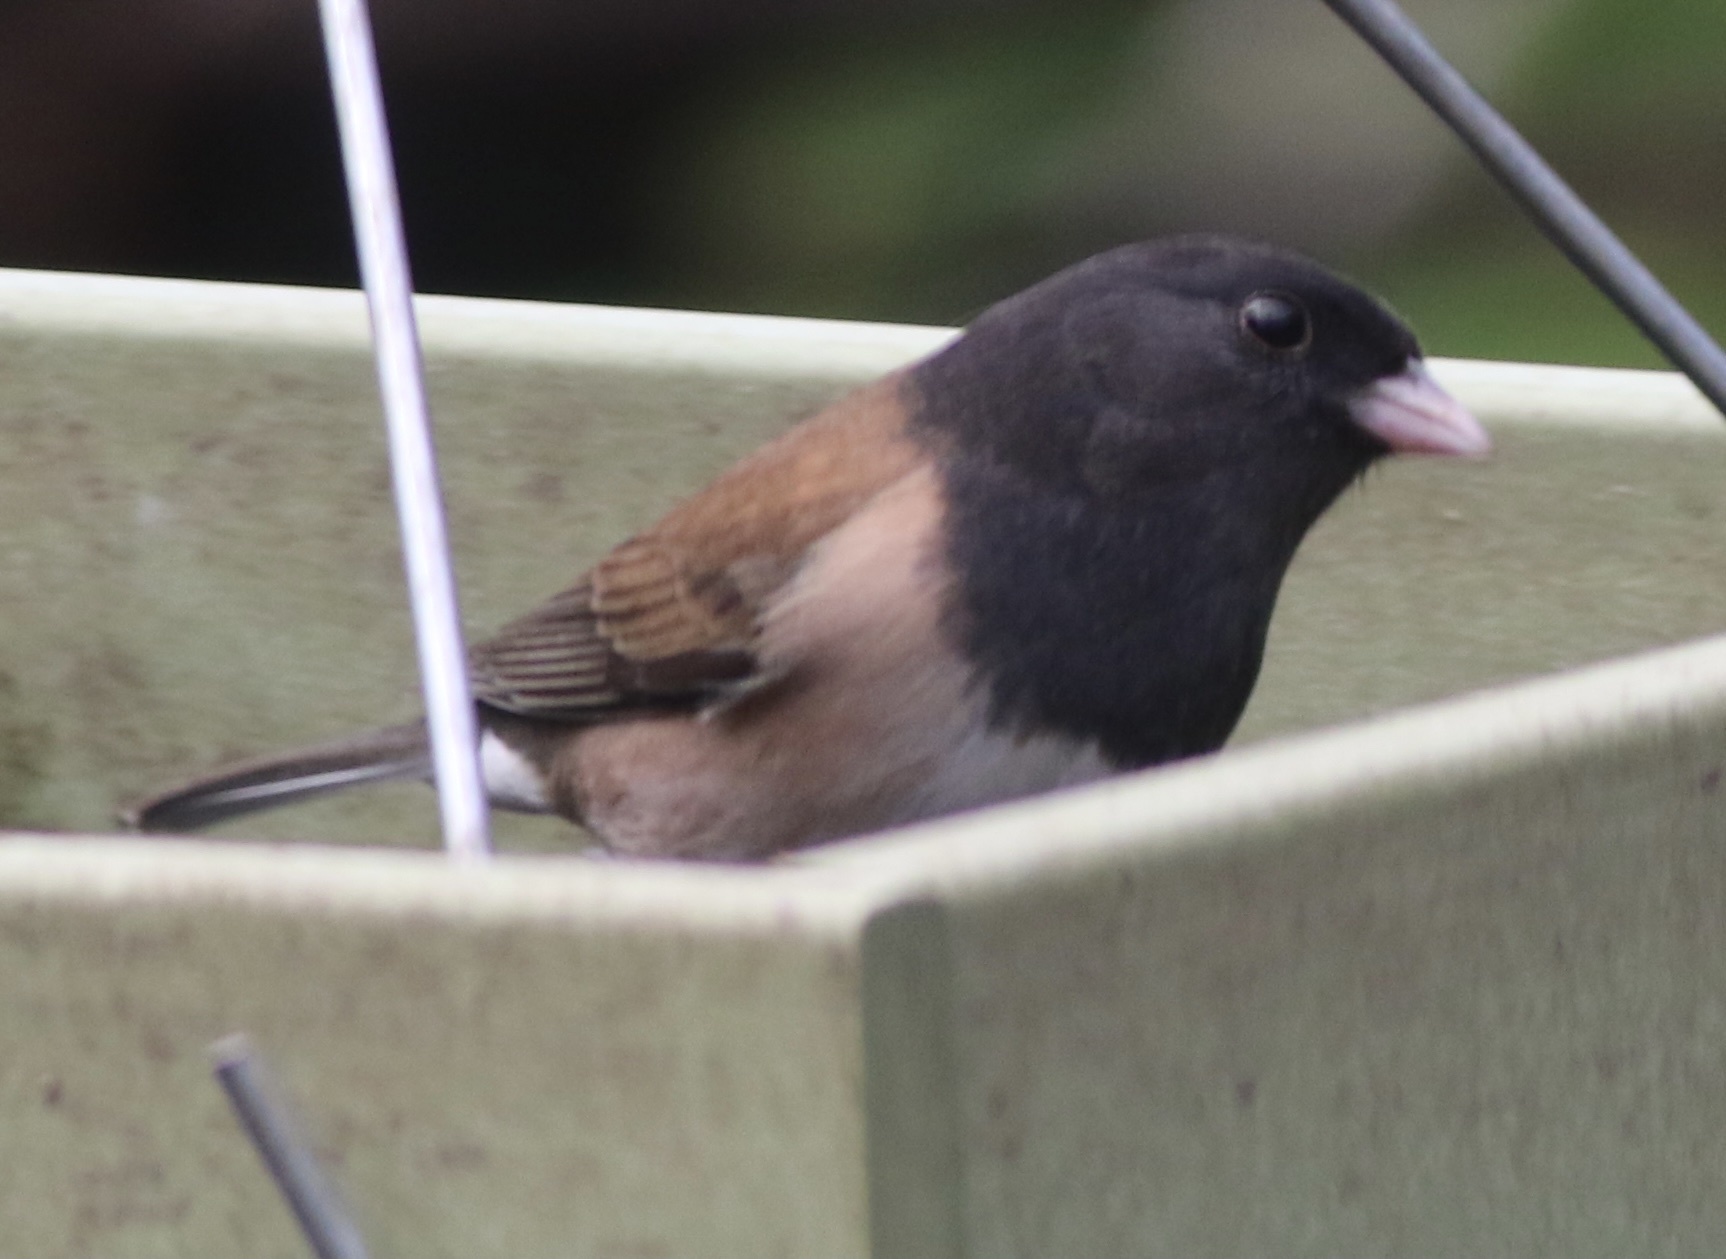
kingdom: Animalia
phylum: Chordata
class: Aves
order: Passeriformes
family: Passerellidae
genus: Junco
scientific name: Junco hyemalis
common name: Dark-eyed junco
